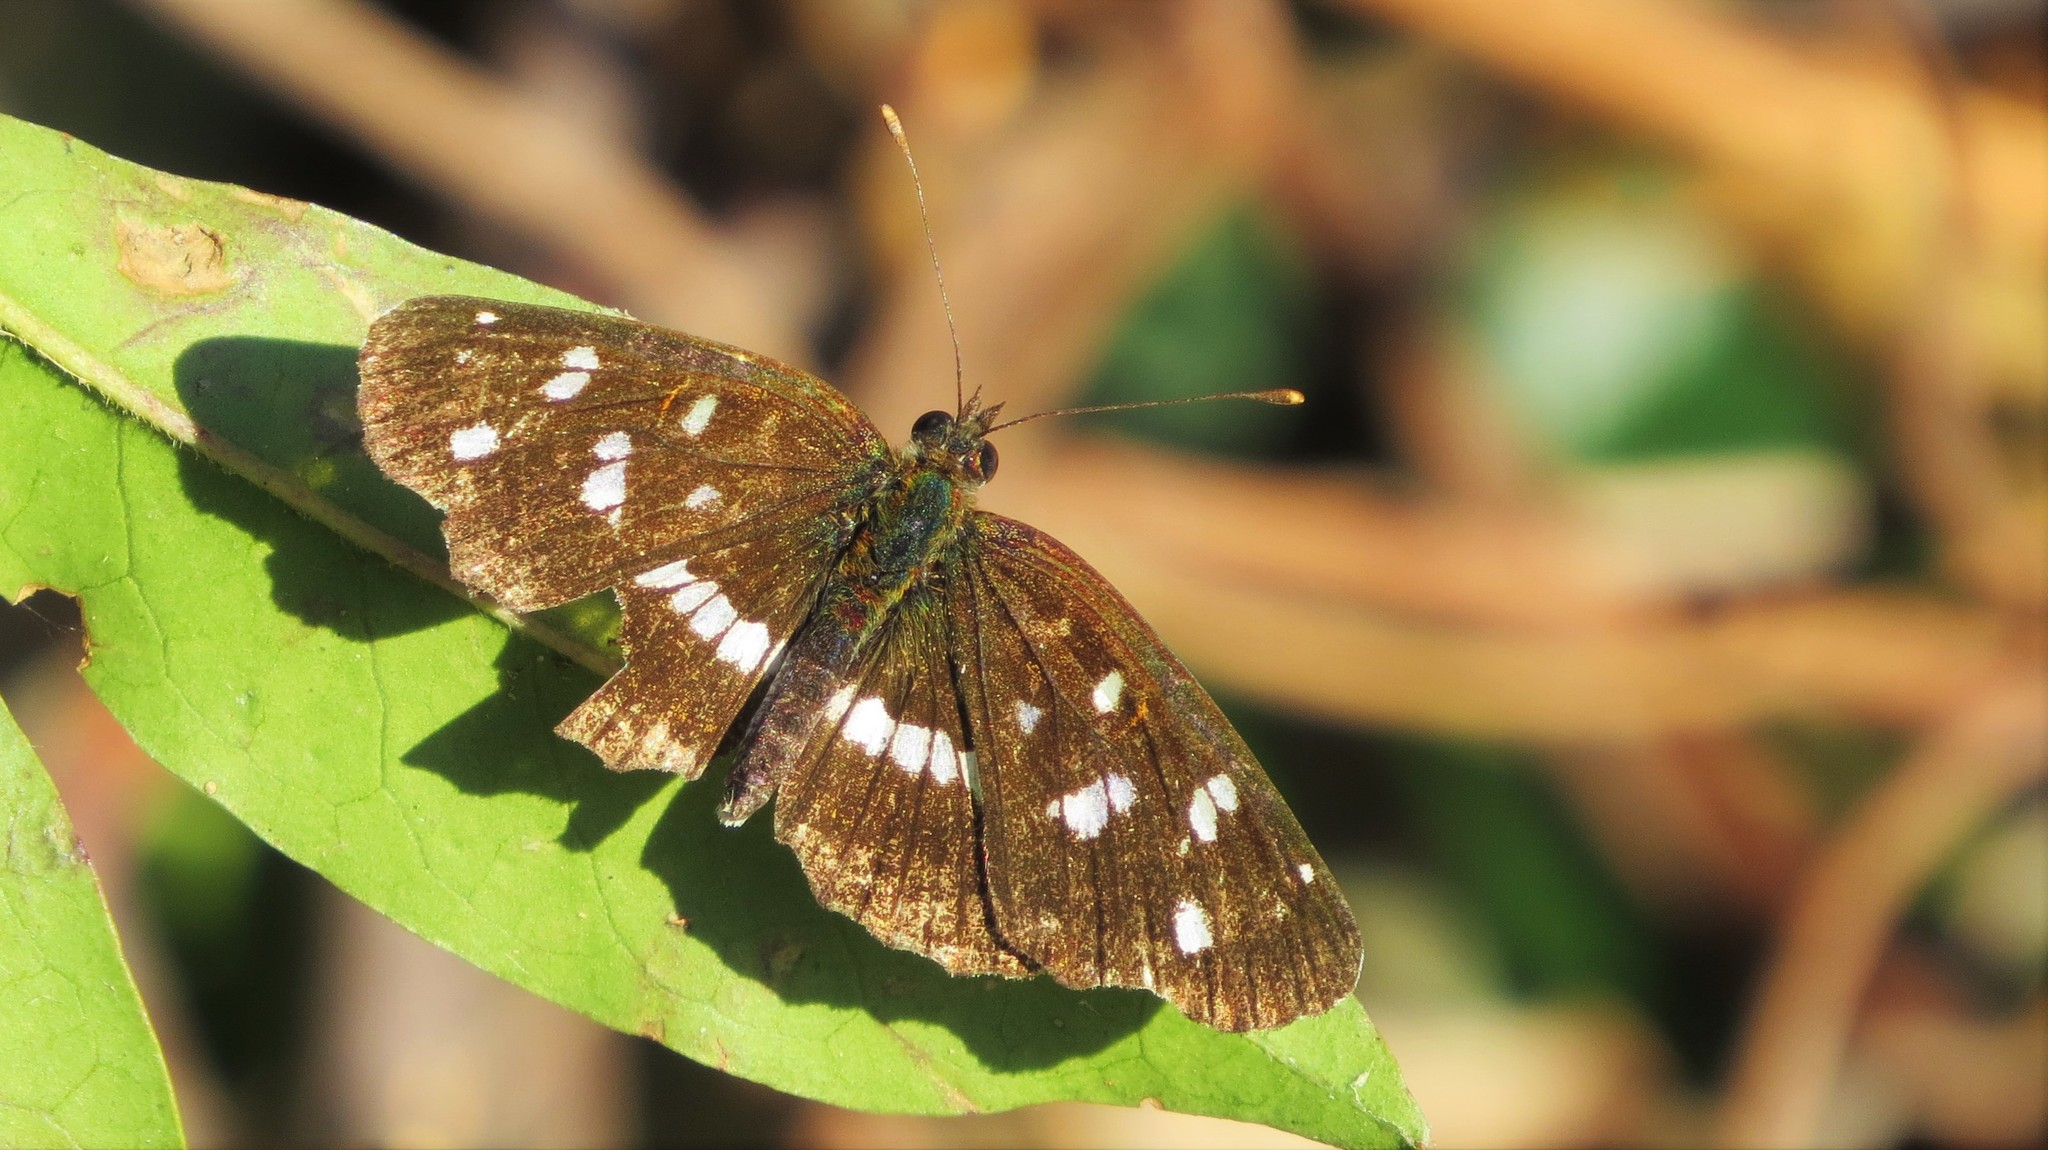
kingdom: Animalia
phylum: Arthropoda
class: Insecta
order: Lepidoptera
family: Nymphalidae
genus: Ortilia
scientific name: Ortilia ithra
